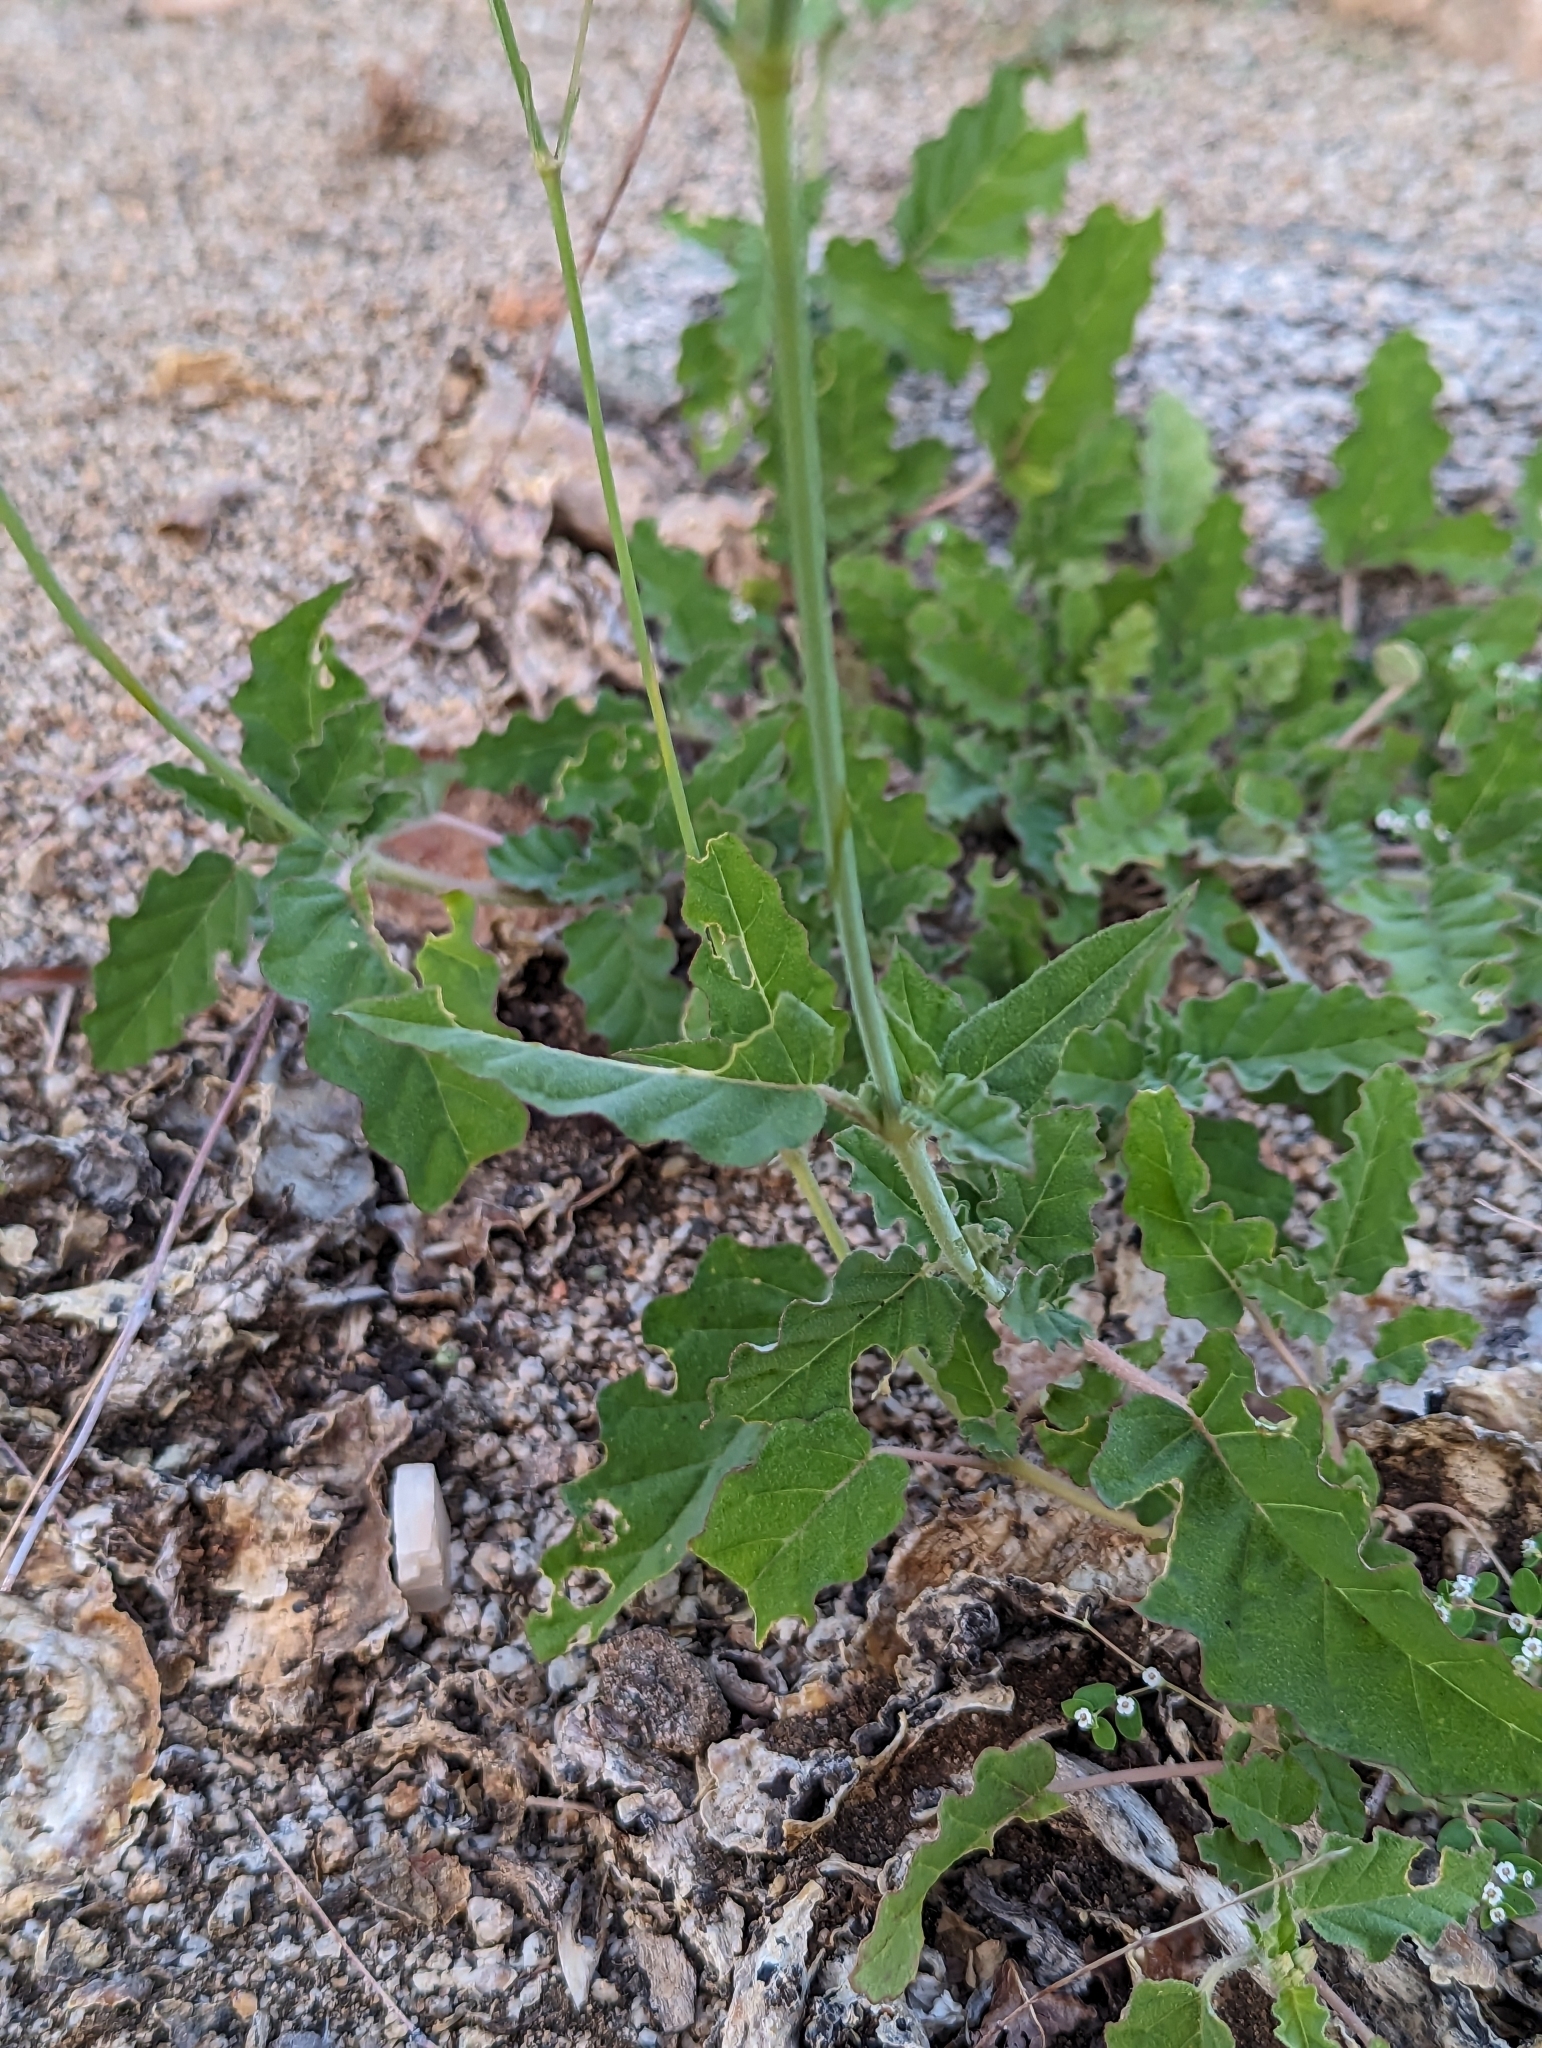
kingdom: Plantae
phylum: Tracheophyta
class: Magnoliopsida
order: Caryophyllales
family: Nyctaginaceae
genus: Boerhavia
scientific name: Boerhavia xantii
